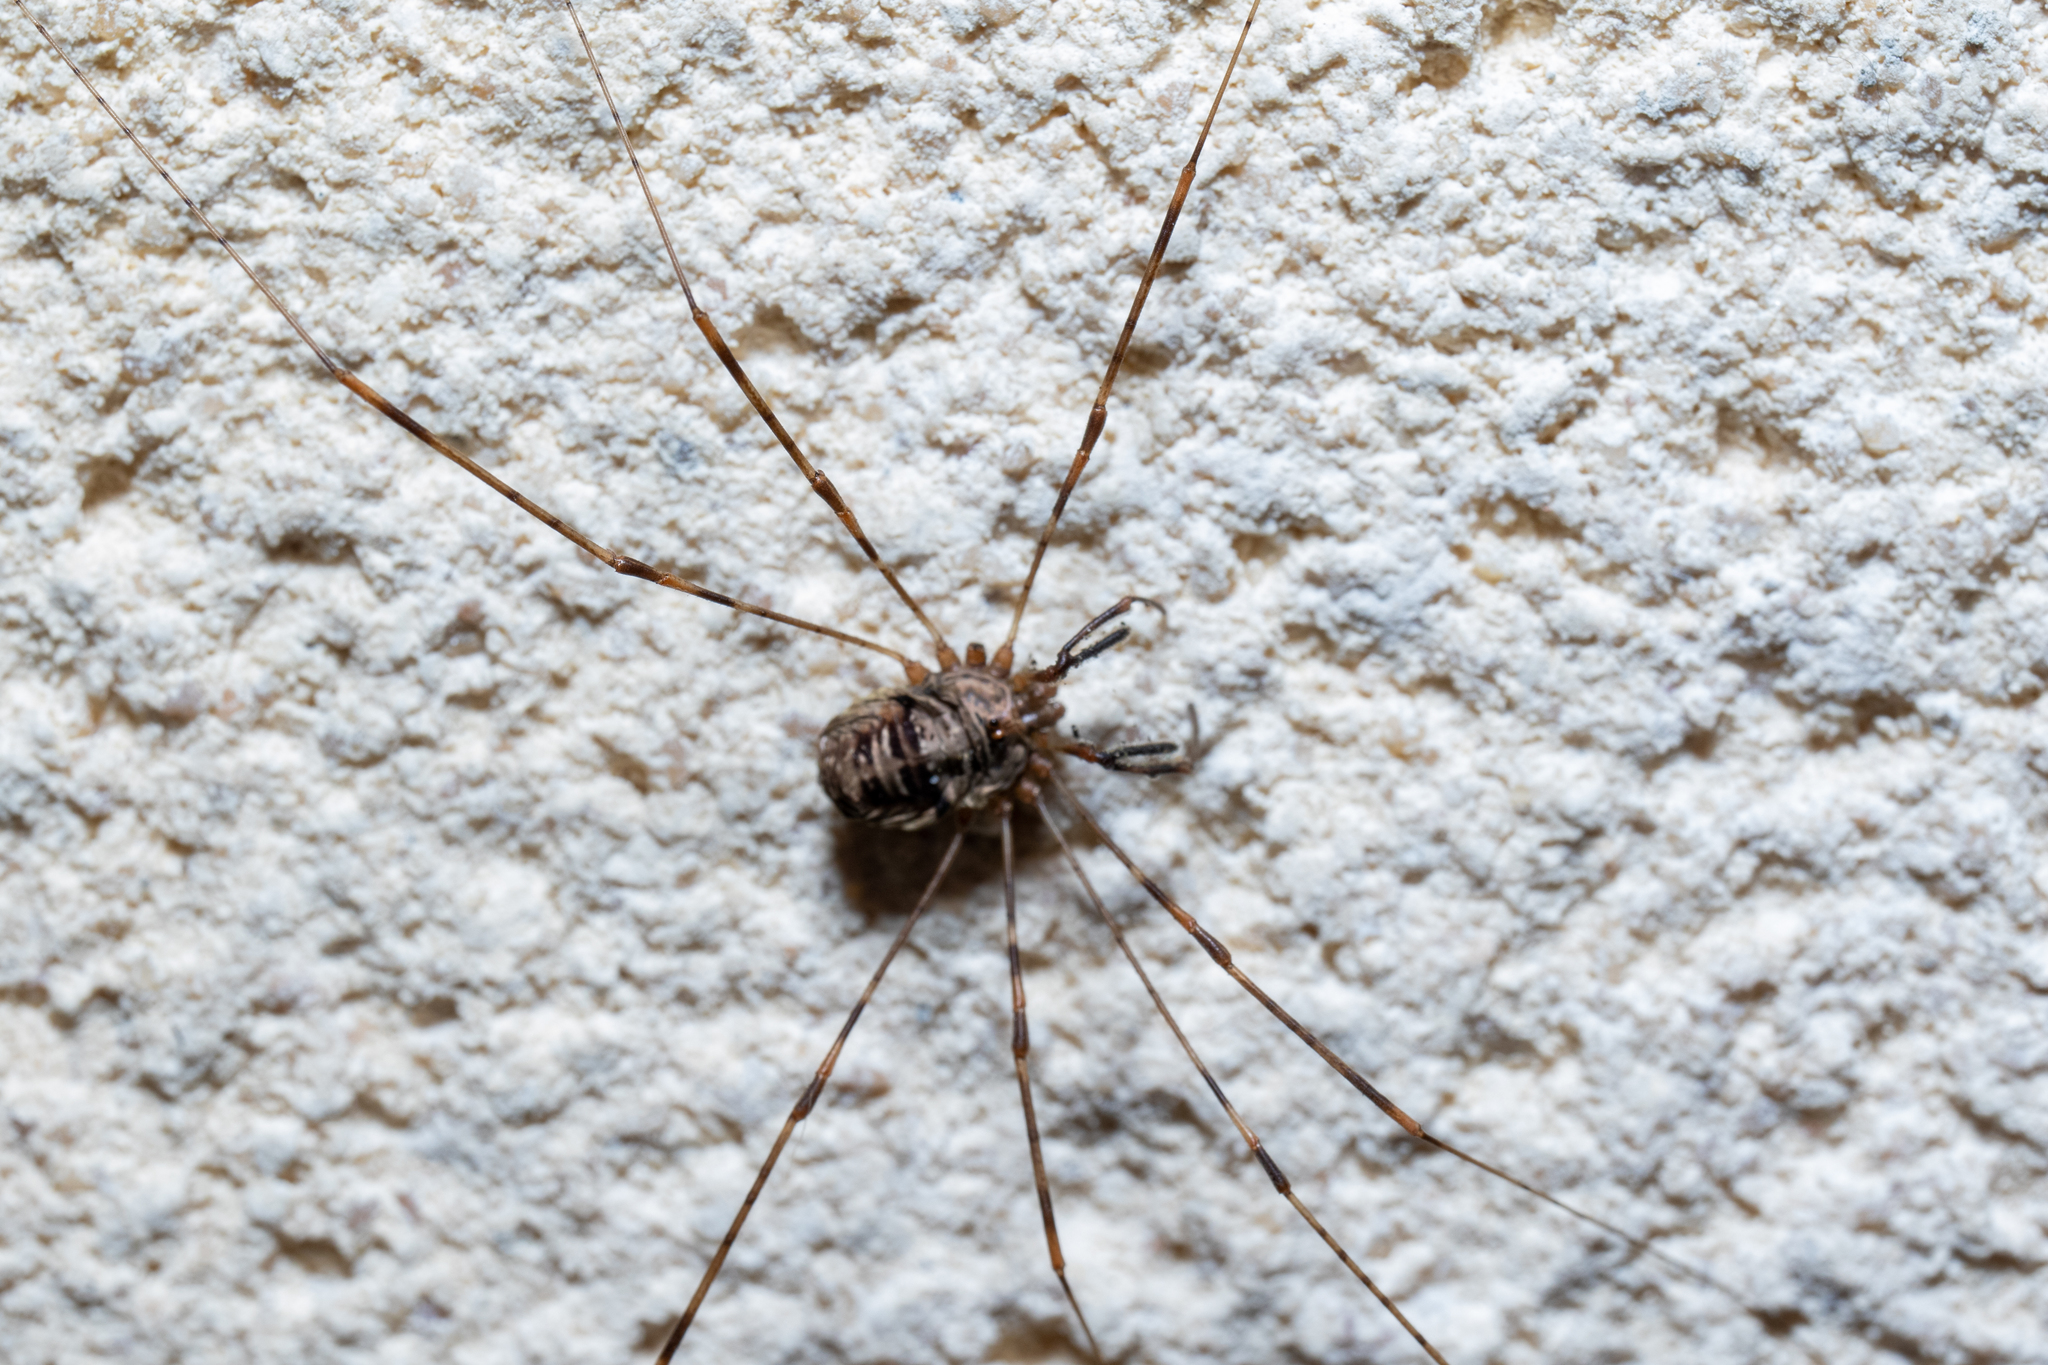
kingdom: Animalia
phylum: Arthropoda
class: Arachnida
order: Opiliones
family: Phalangiidae
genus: Dicranopalpus
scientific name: Dicranopalpus ramosus
